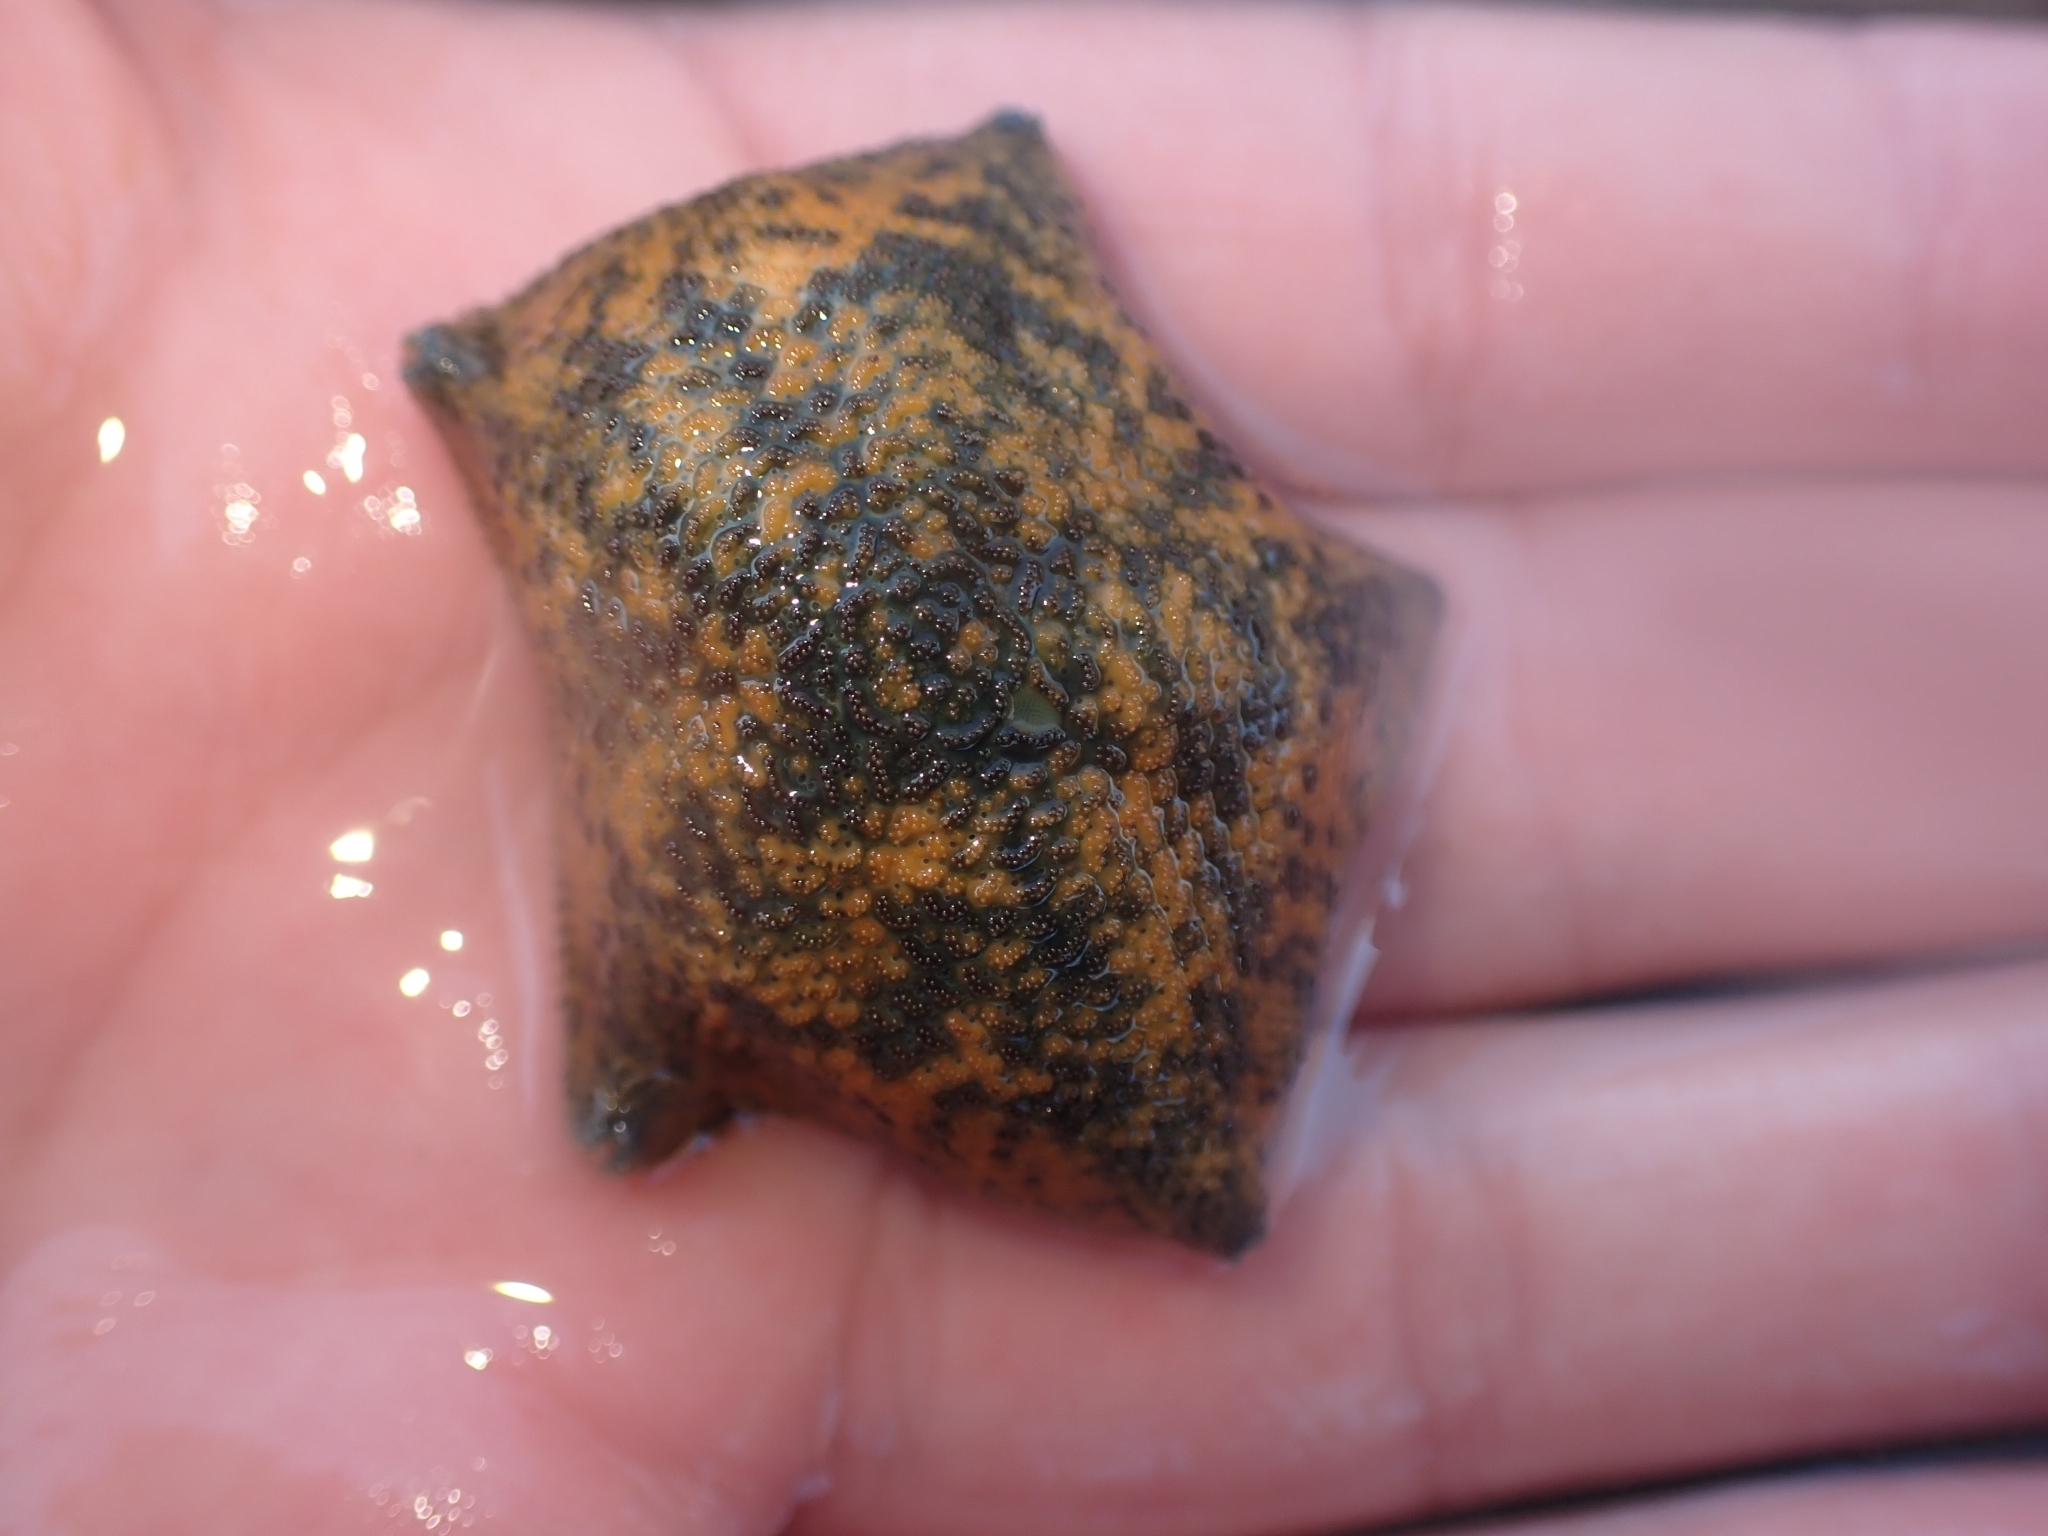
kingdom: Animalia
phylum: Echinodermata
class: Asteroidea
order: Valvatida
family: Asterinidae
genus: Patiriella
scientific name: Patiriella regularis
